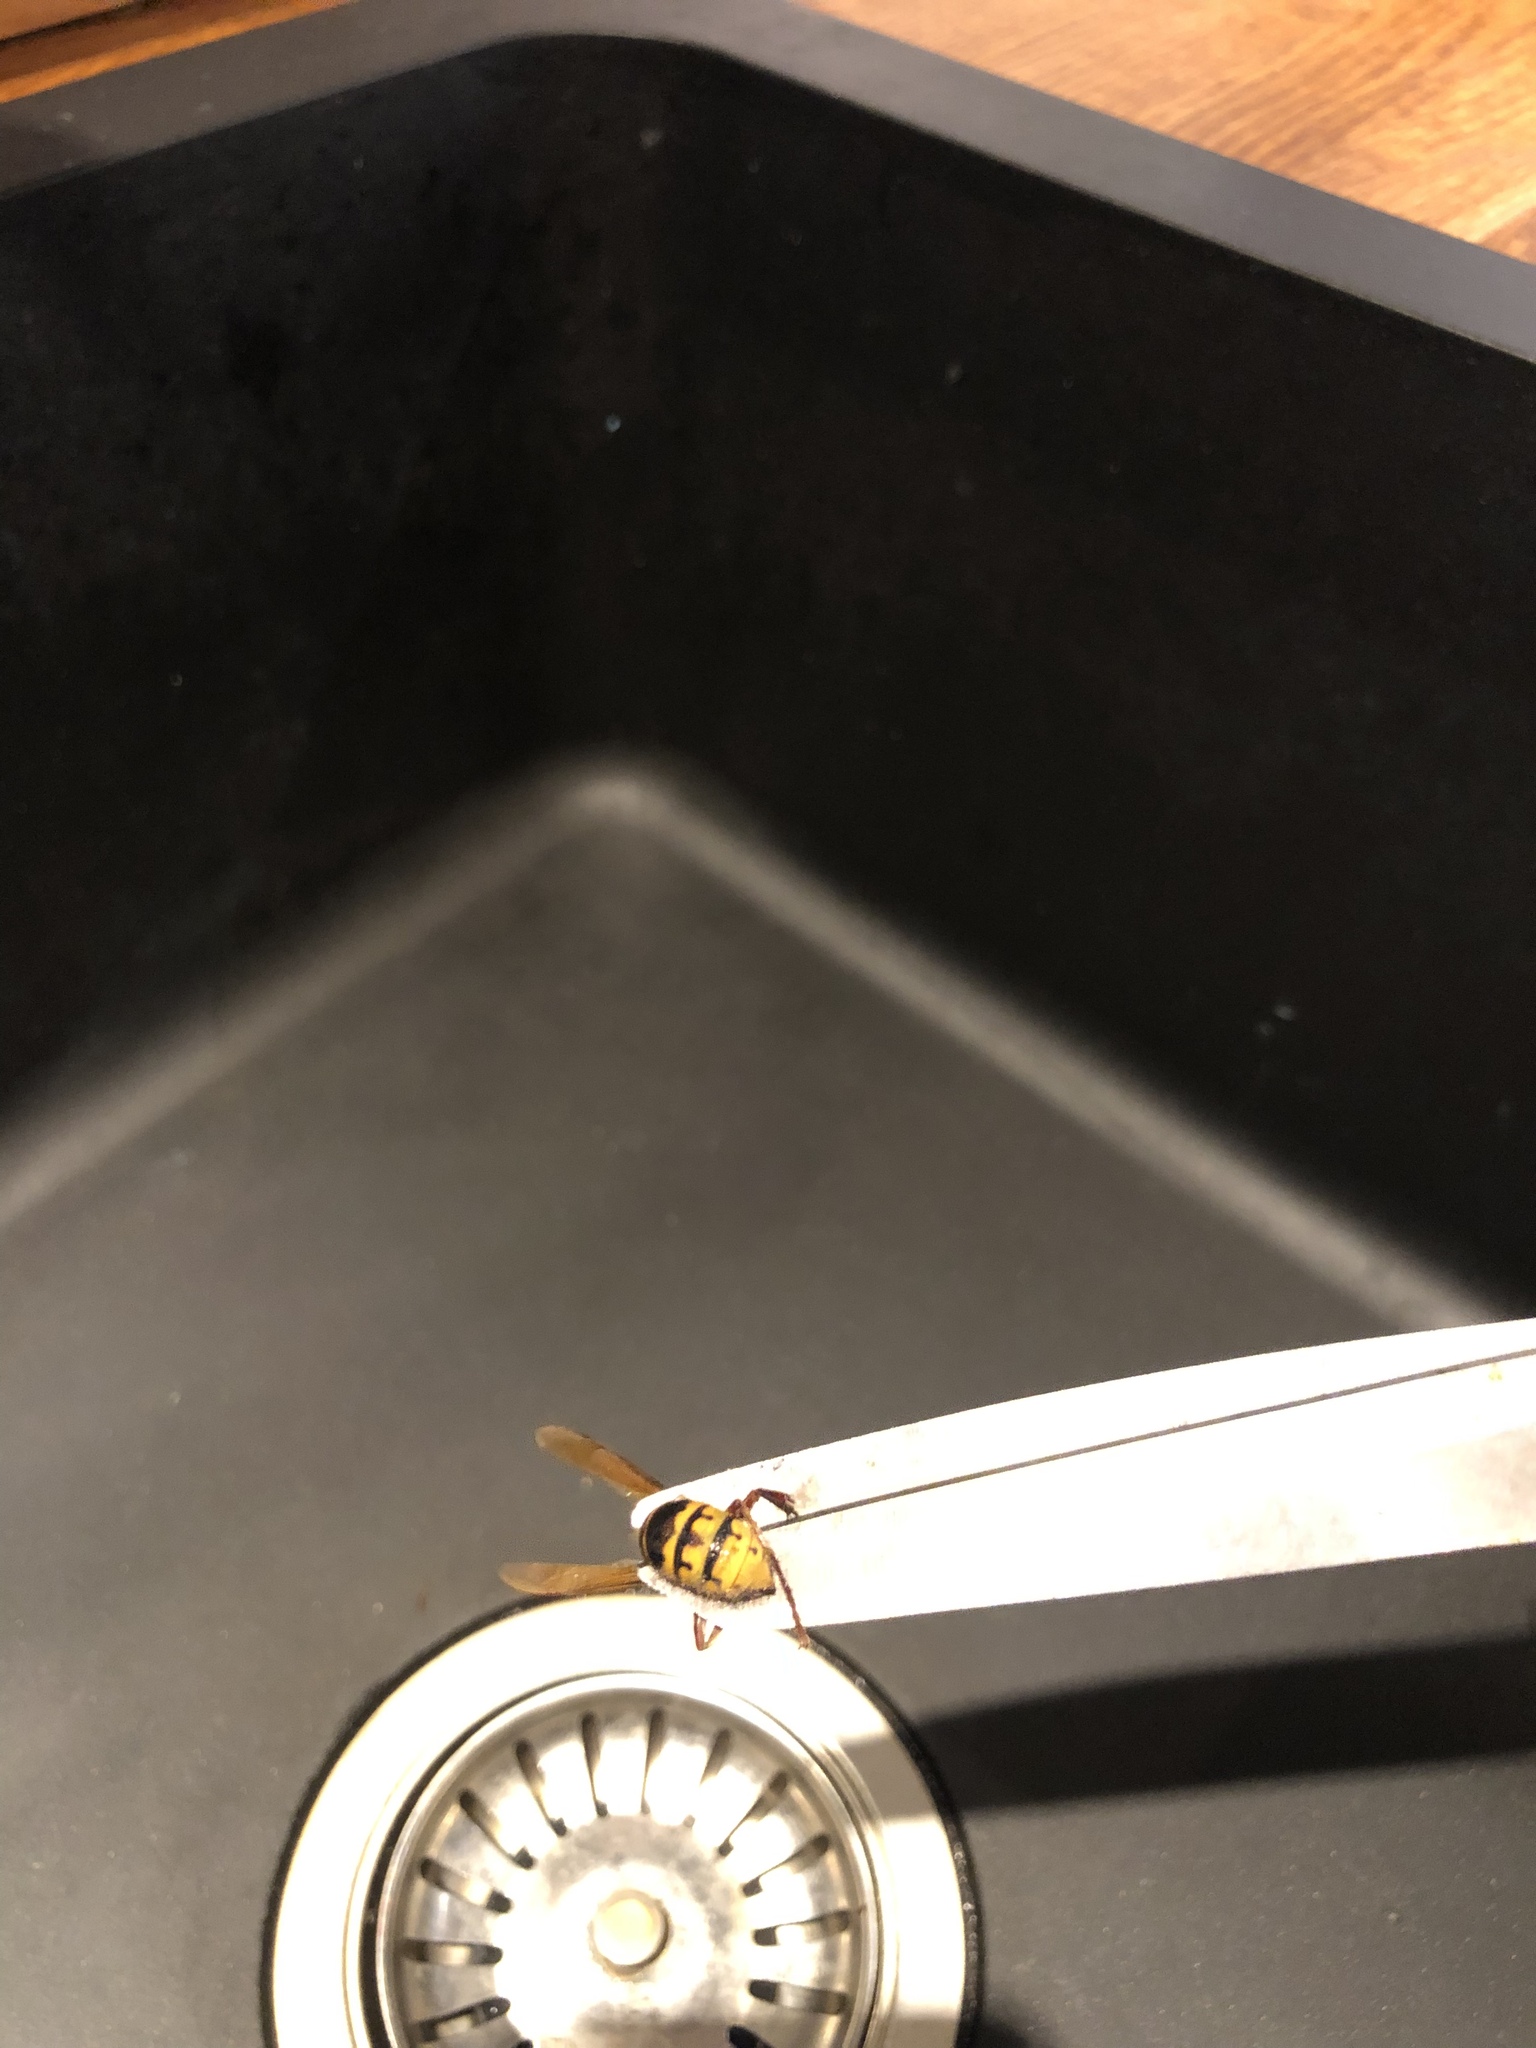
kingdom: Animalia
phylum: Arthropoda
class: Insecta
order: Hymenoptera
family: Vespidae
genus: Vespa
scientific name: Vespa crabro
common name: Hornet
